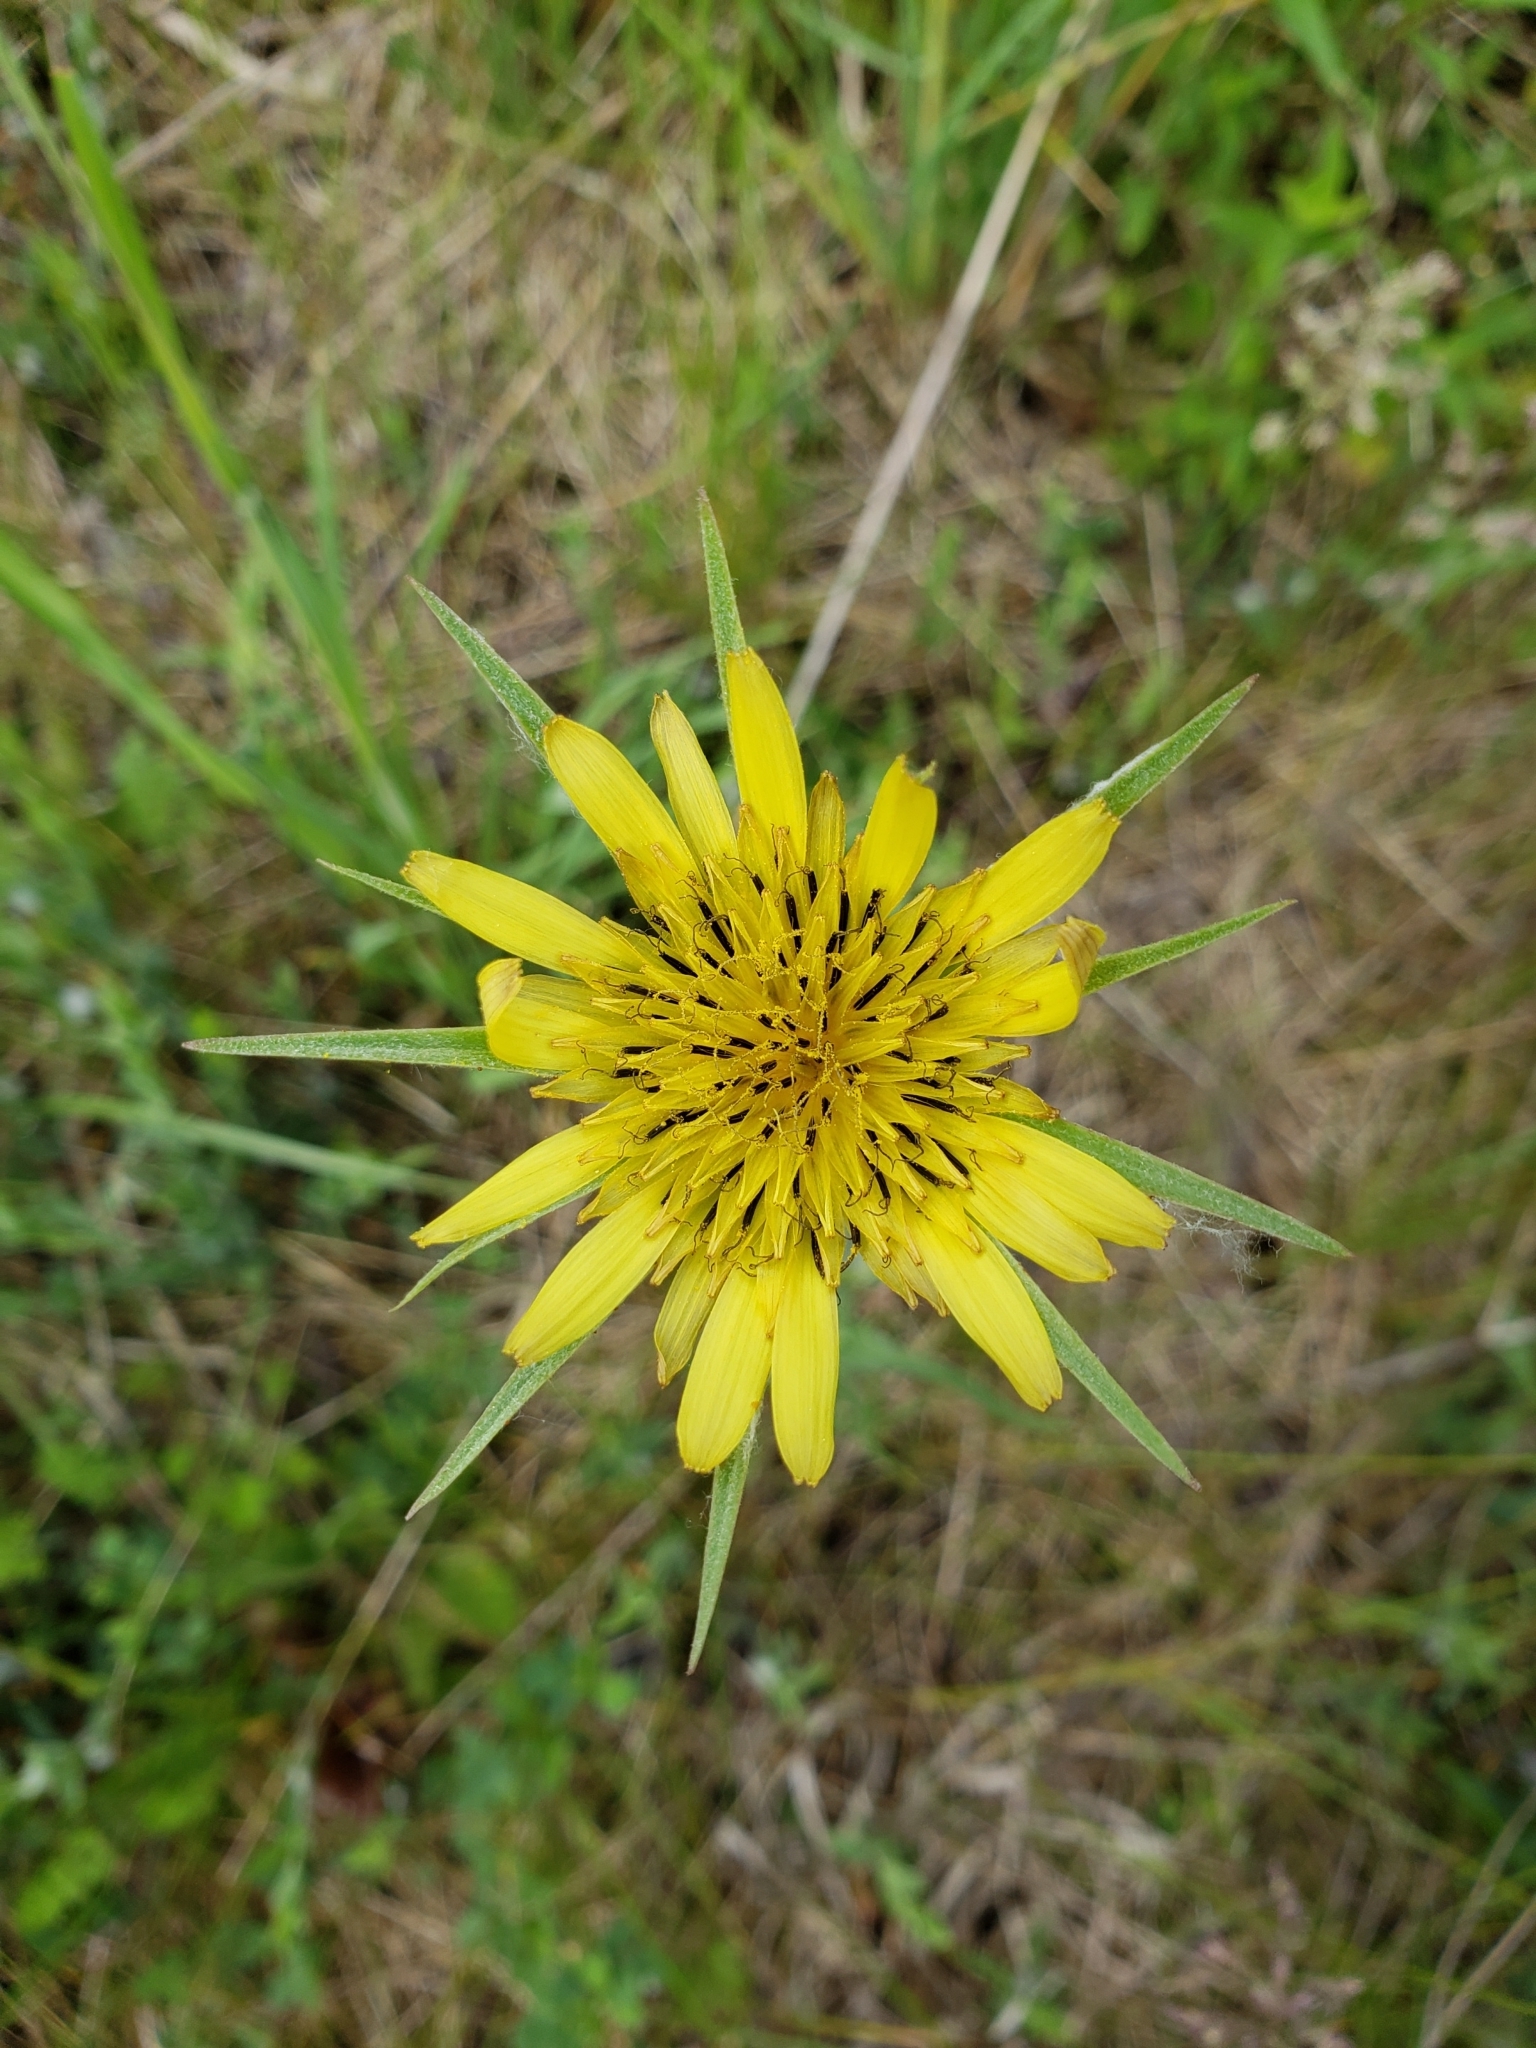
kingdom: Plantae
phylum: Tracheophyta
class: Magnoliopsida
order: Asterales
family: Asteraceae
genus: Tragopogon
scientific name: Tragopogon dubius
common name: Yellow salsify
